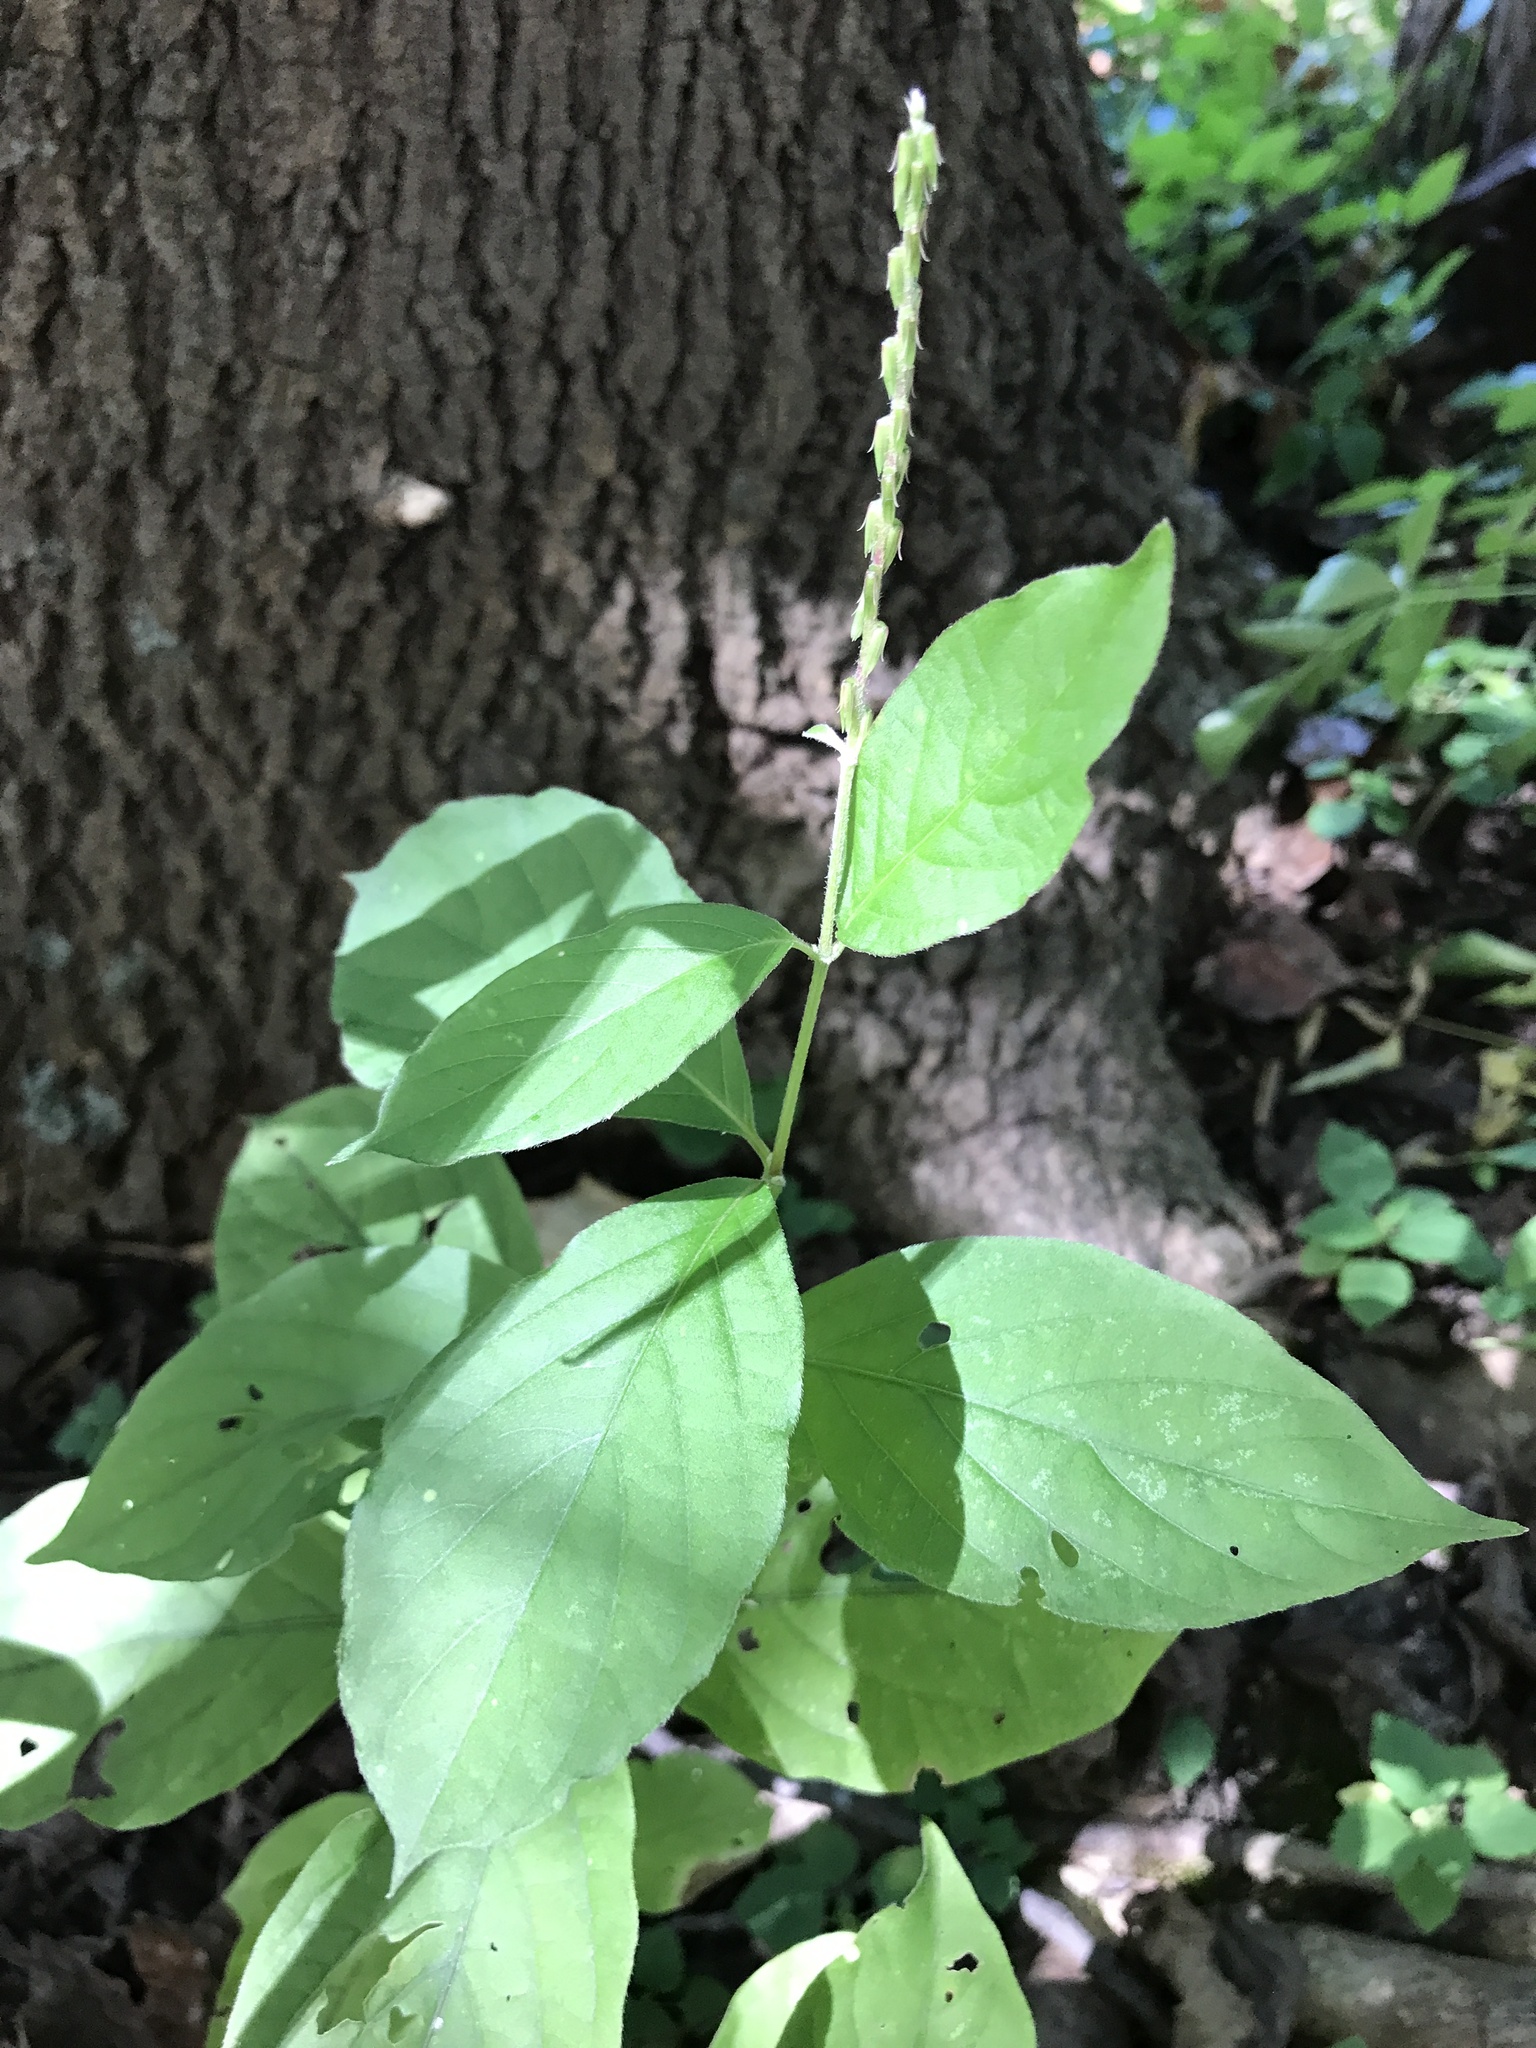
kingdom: Plantae
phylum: Tracheophyta
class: Magnoliopsida
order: Caryophyllales
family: Amaranthaceae
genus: Achyranthes
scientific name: Achyranthes bidentata
